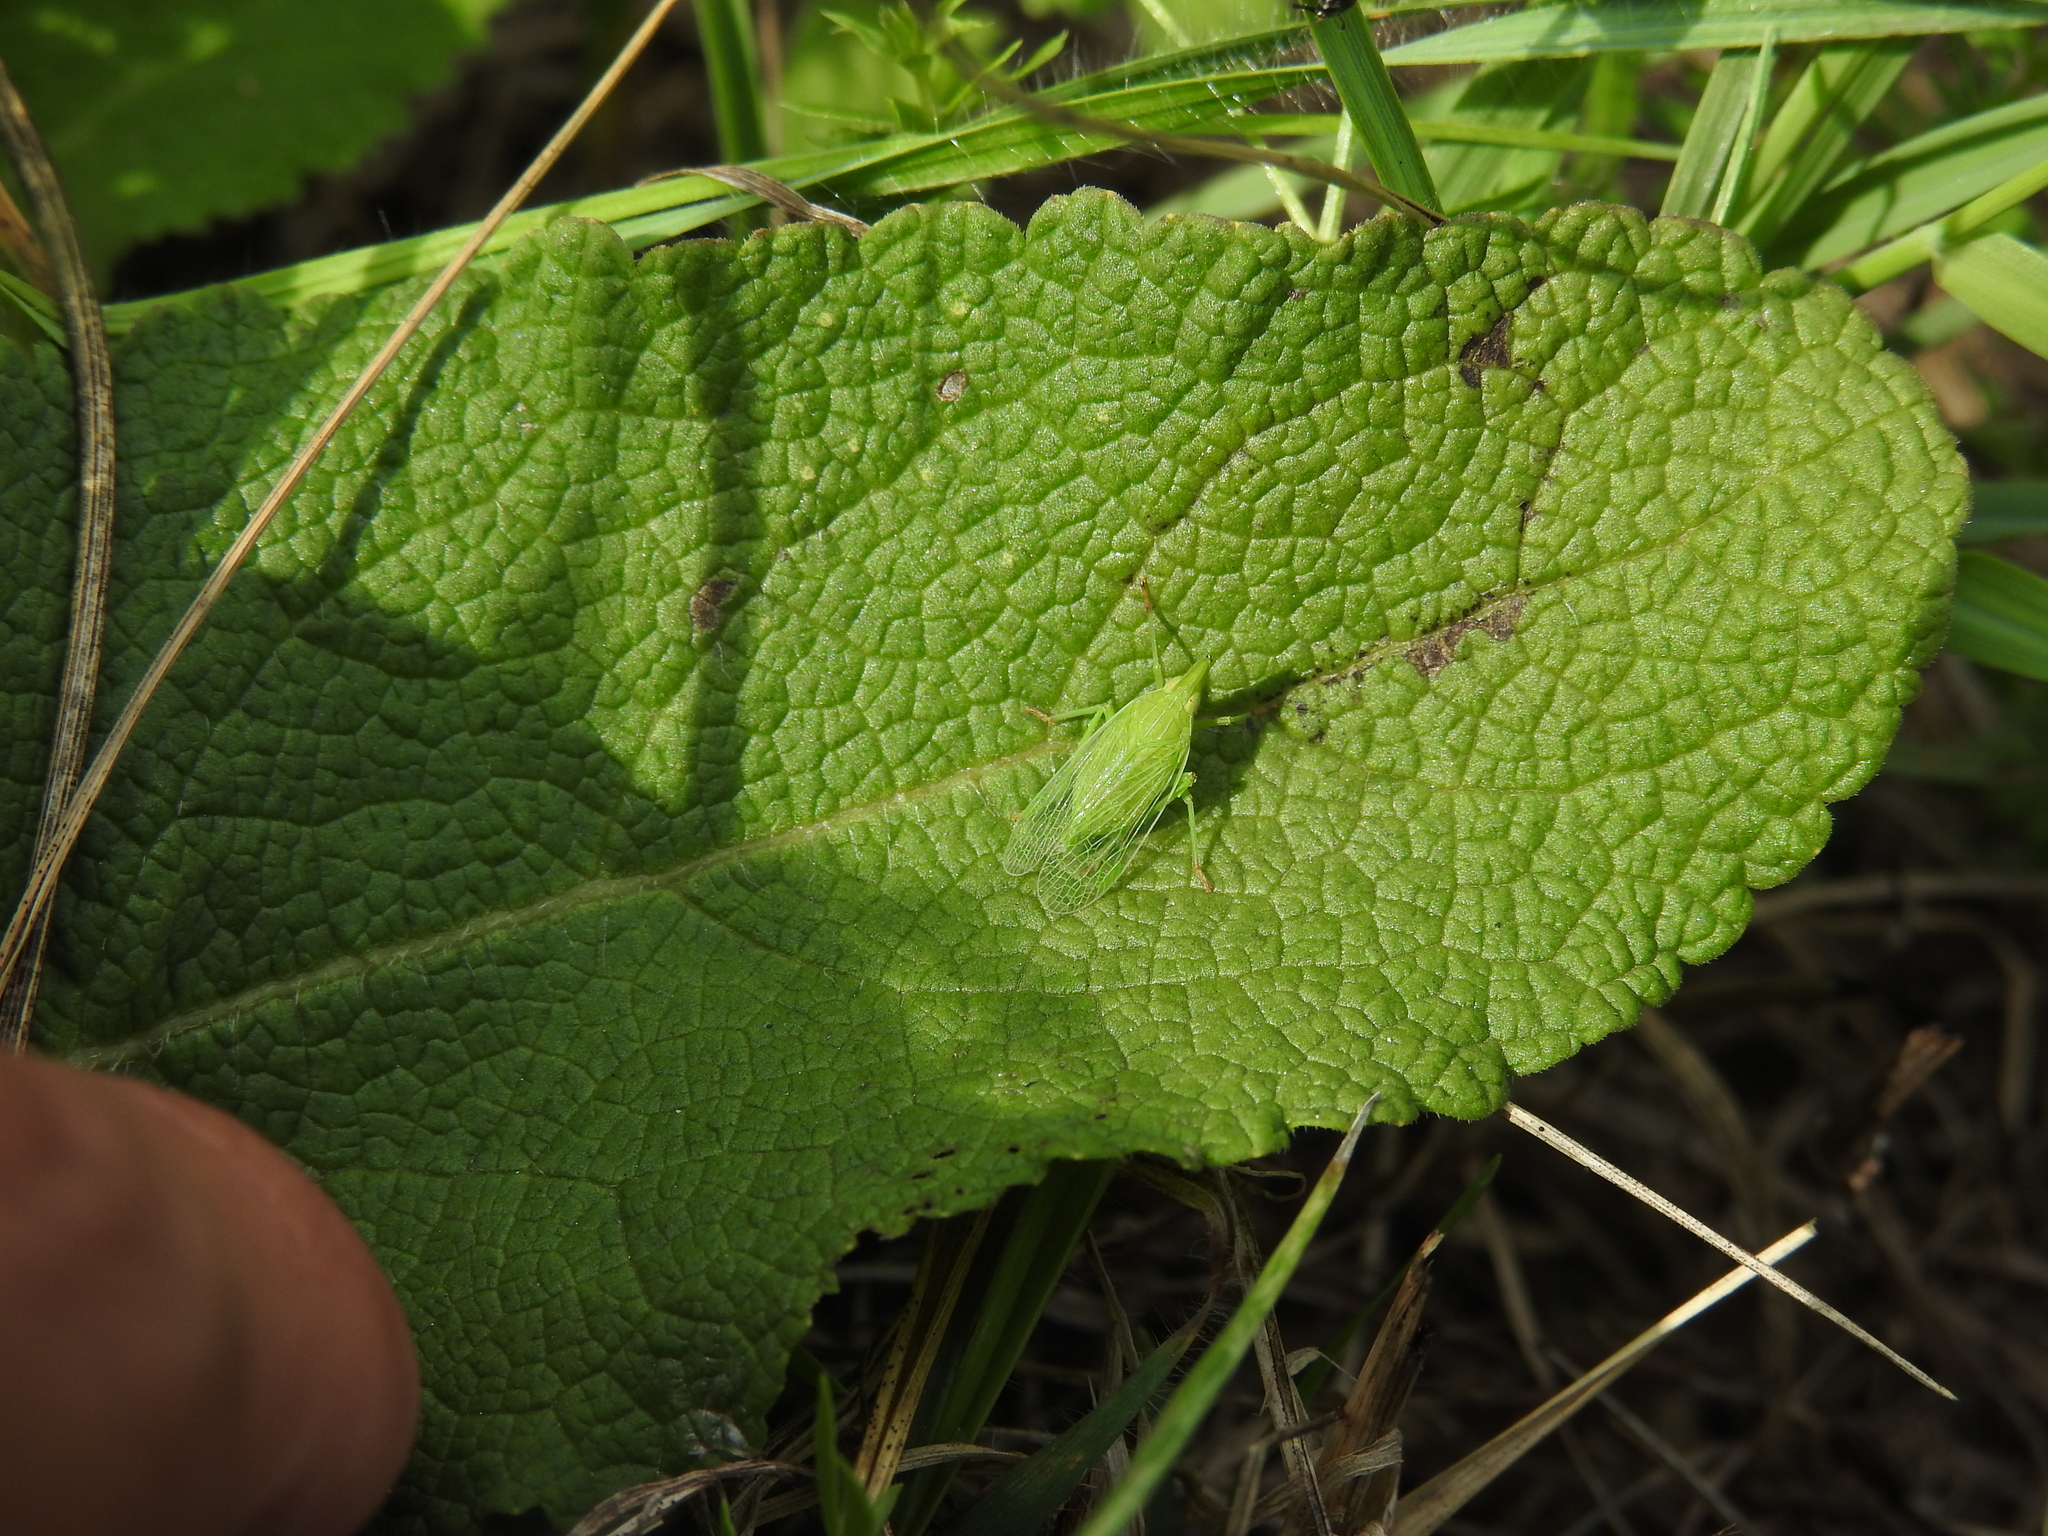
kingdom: Animalia
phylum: Arthropoda
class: Insecta
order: Hemiptera
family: Dictyopharidae
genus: Dictyophara
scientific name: Dictyophara europaea
